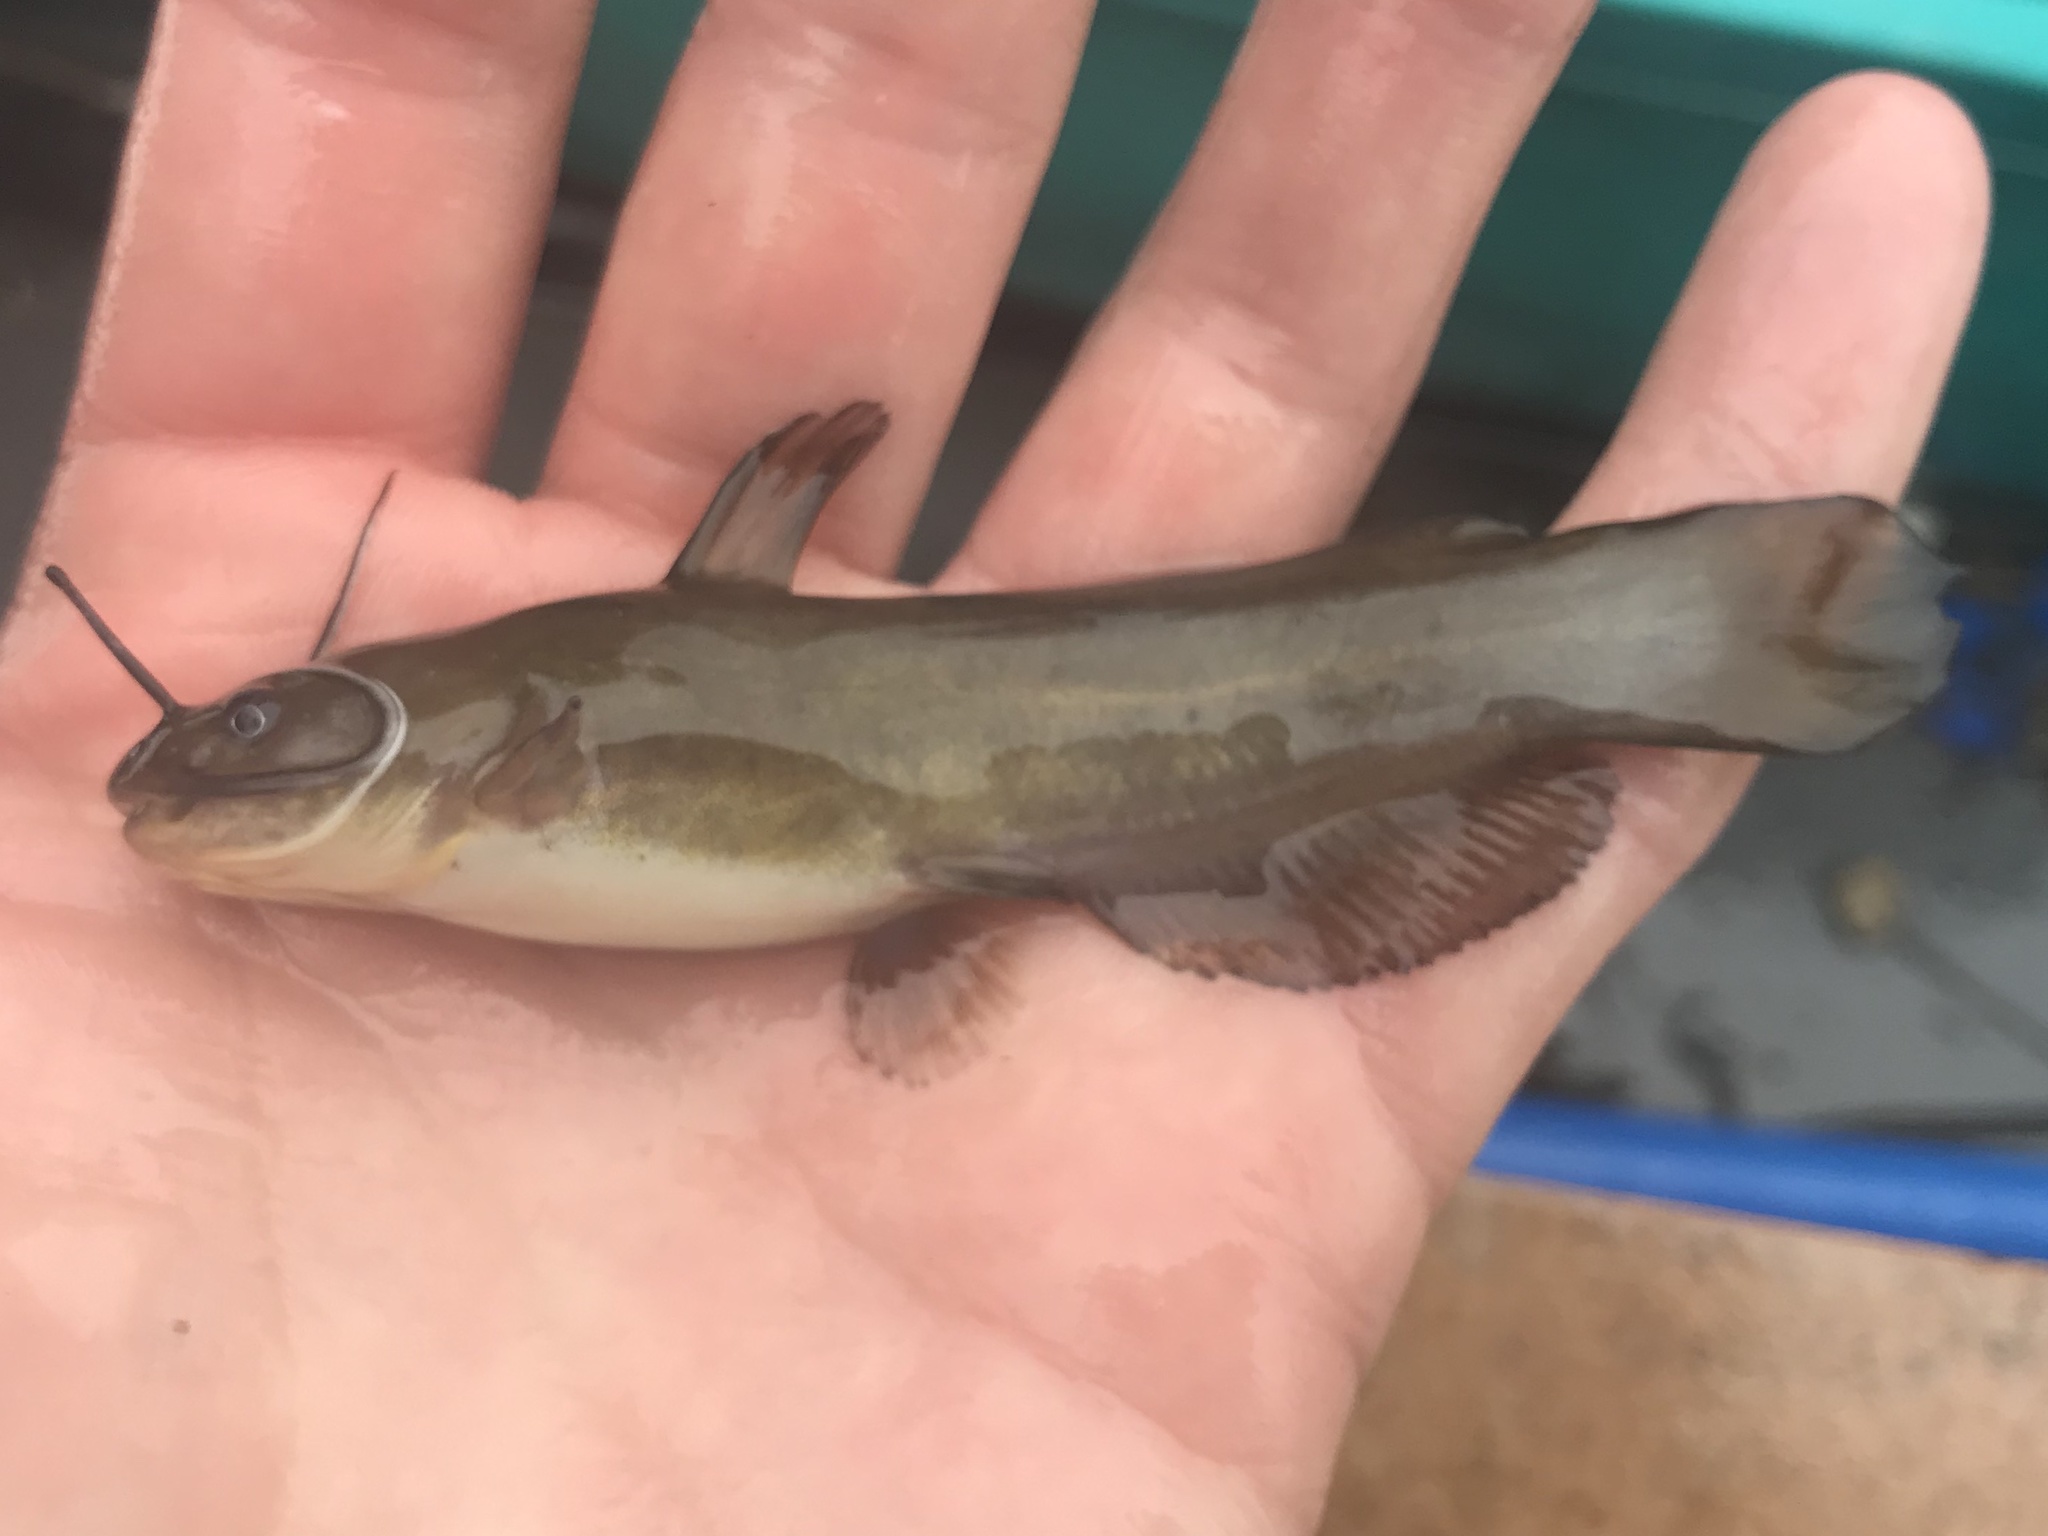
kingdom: Animalia
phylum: Chordata
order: Siluriformes
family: Ictaluridae
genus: Ameiurus
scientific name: Ameiurus natalis
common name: Yellow bullhead
